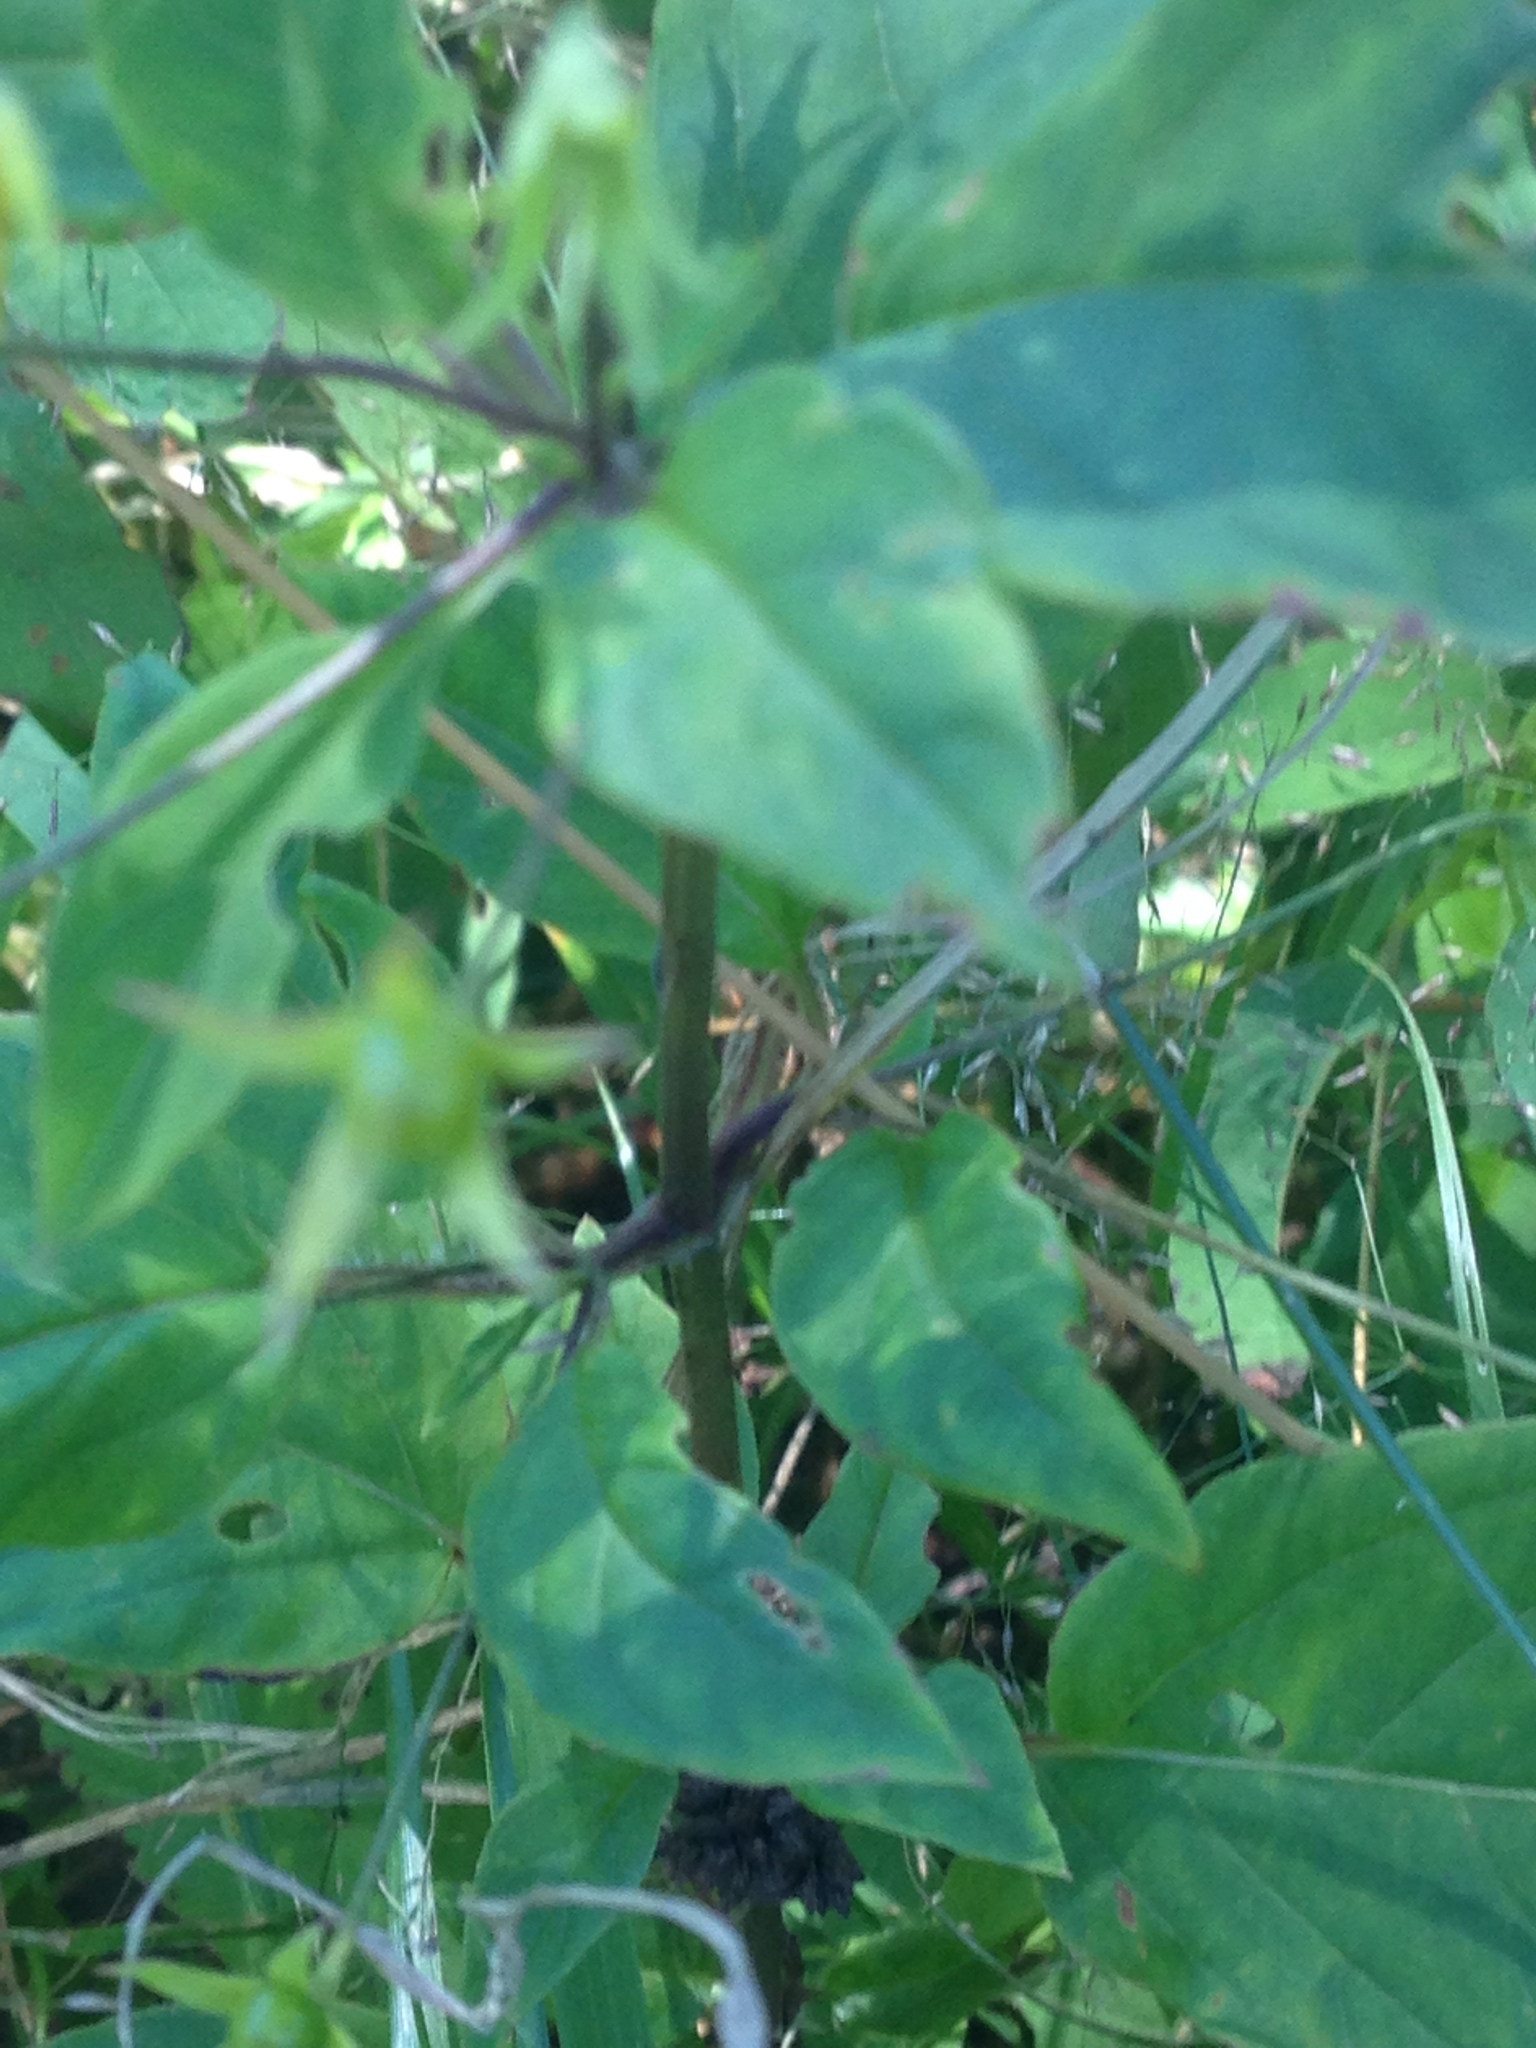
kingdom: Plantae
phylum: Tracheophyta
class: Magnoliopsida
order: Ericales
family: Primulaceae
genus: Lysimachia
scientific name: Lysimachia ciliata
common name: Fringed loosestrife
